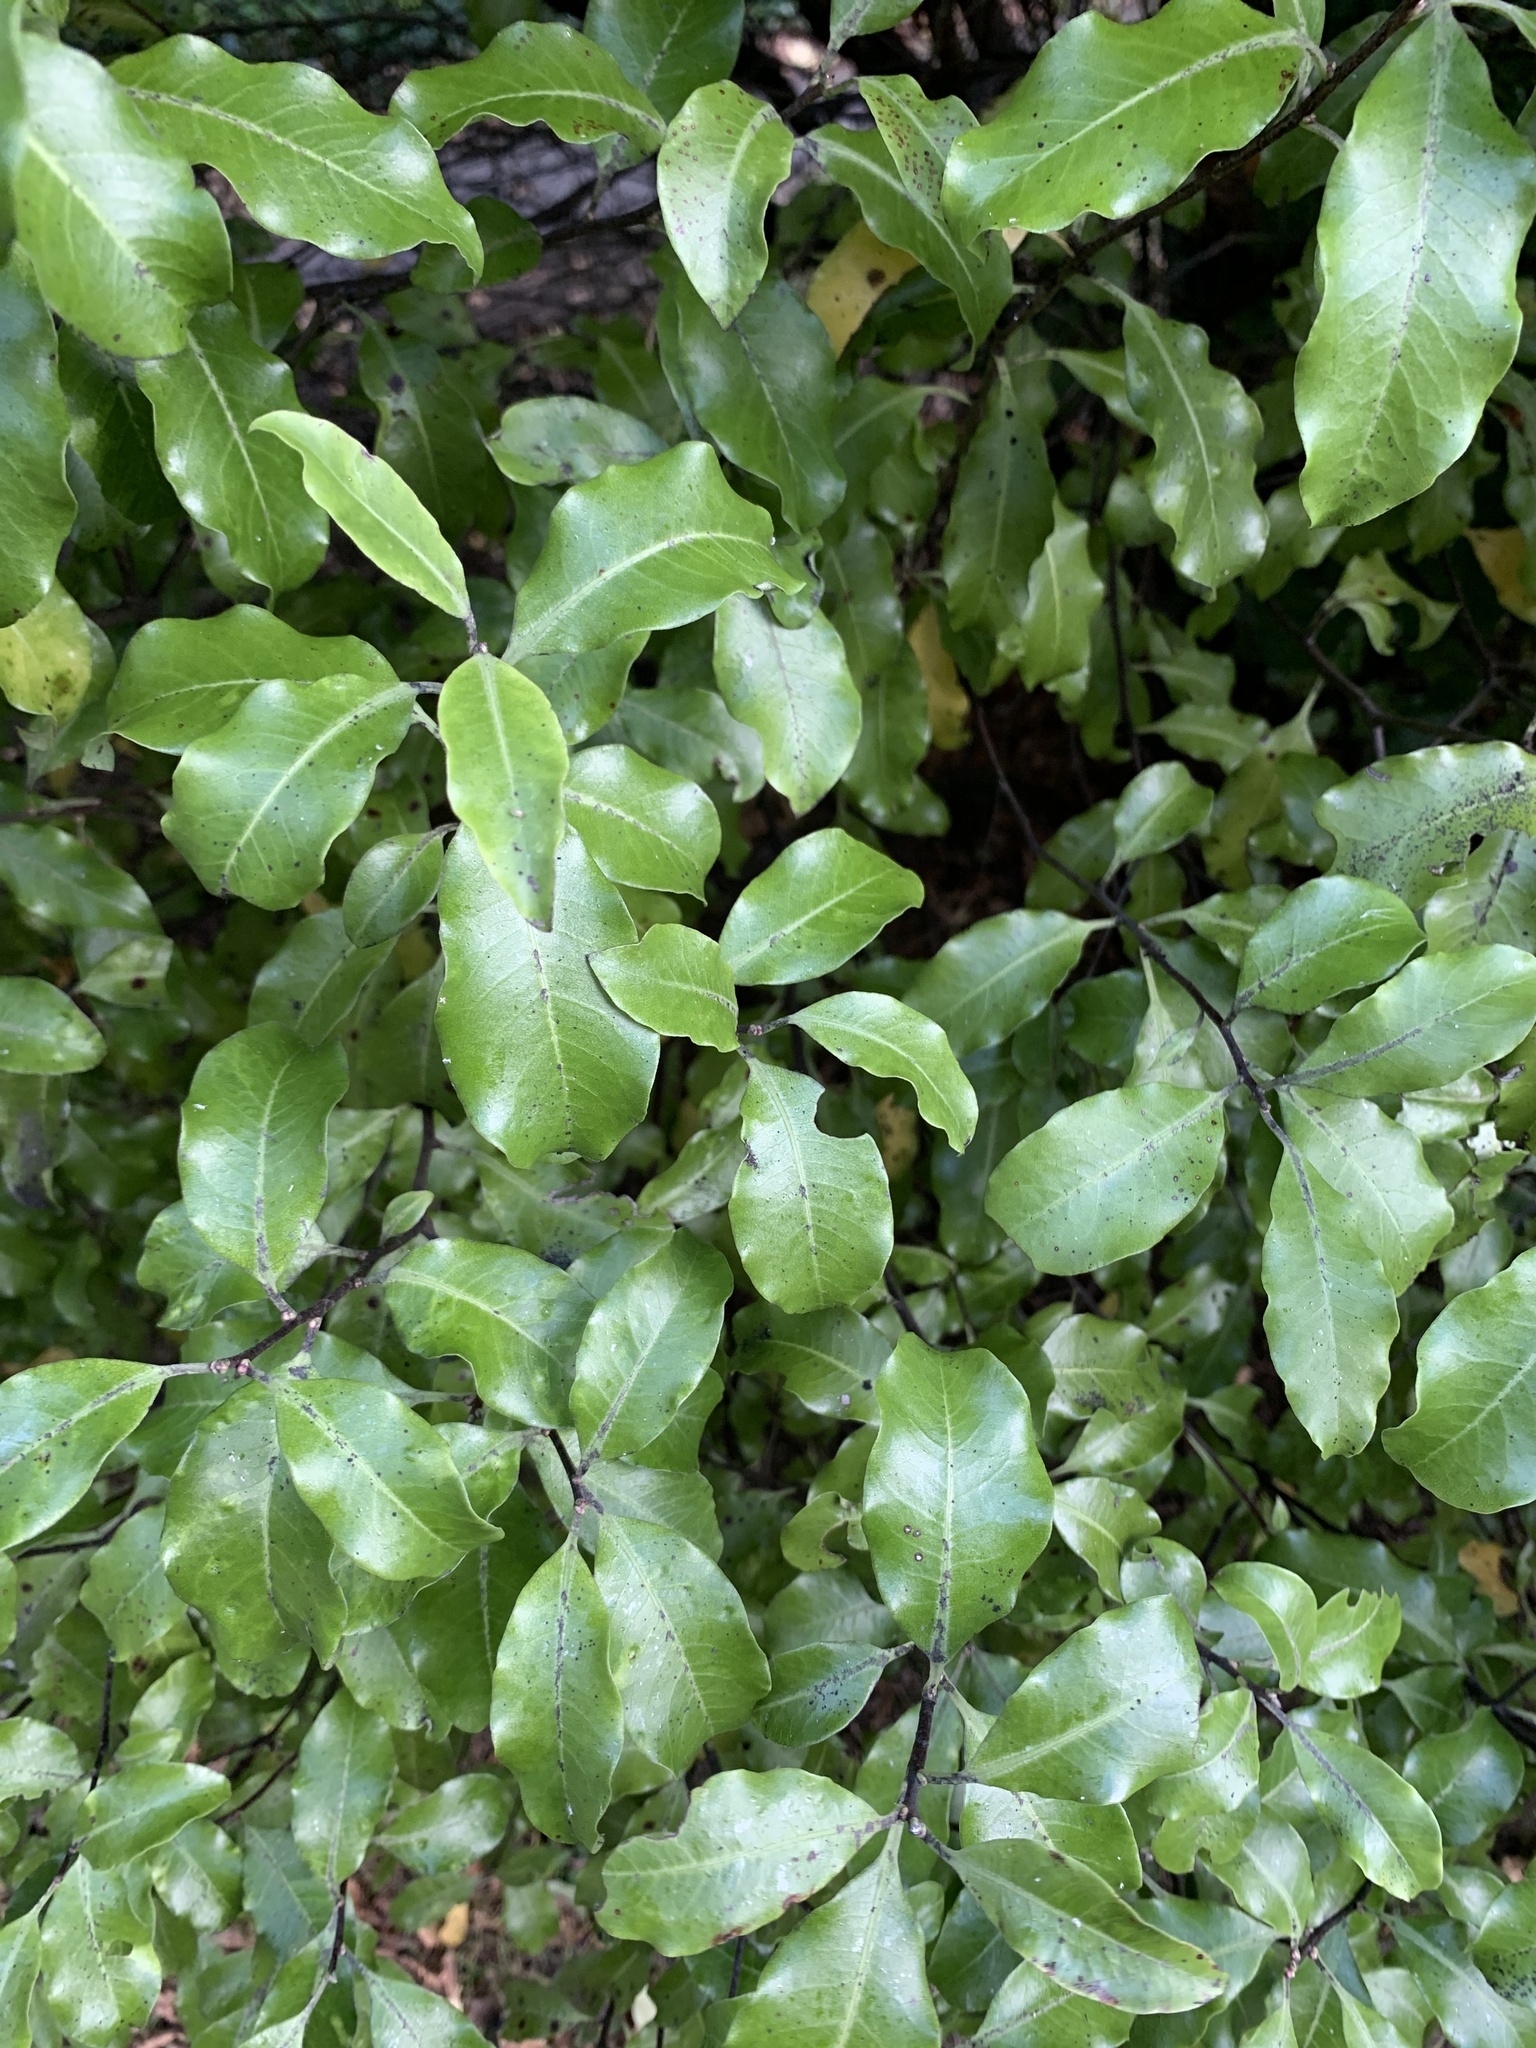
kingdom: Plantae
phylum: Tracheophyta
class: Magnoliopsida
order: Apiales
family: Pittosporaceae
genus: Pittosporum
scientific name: Pittosporum tenuifolium
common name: Kohuhu
